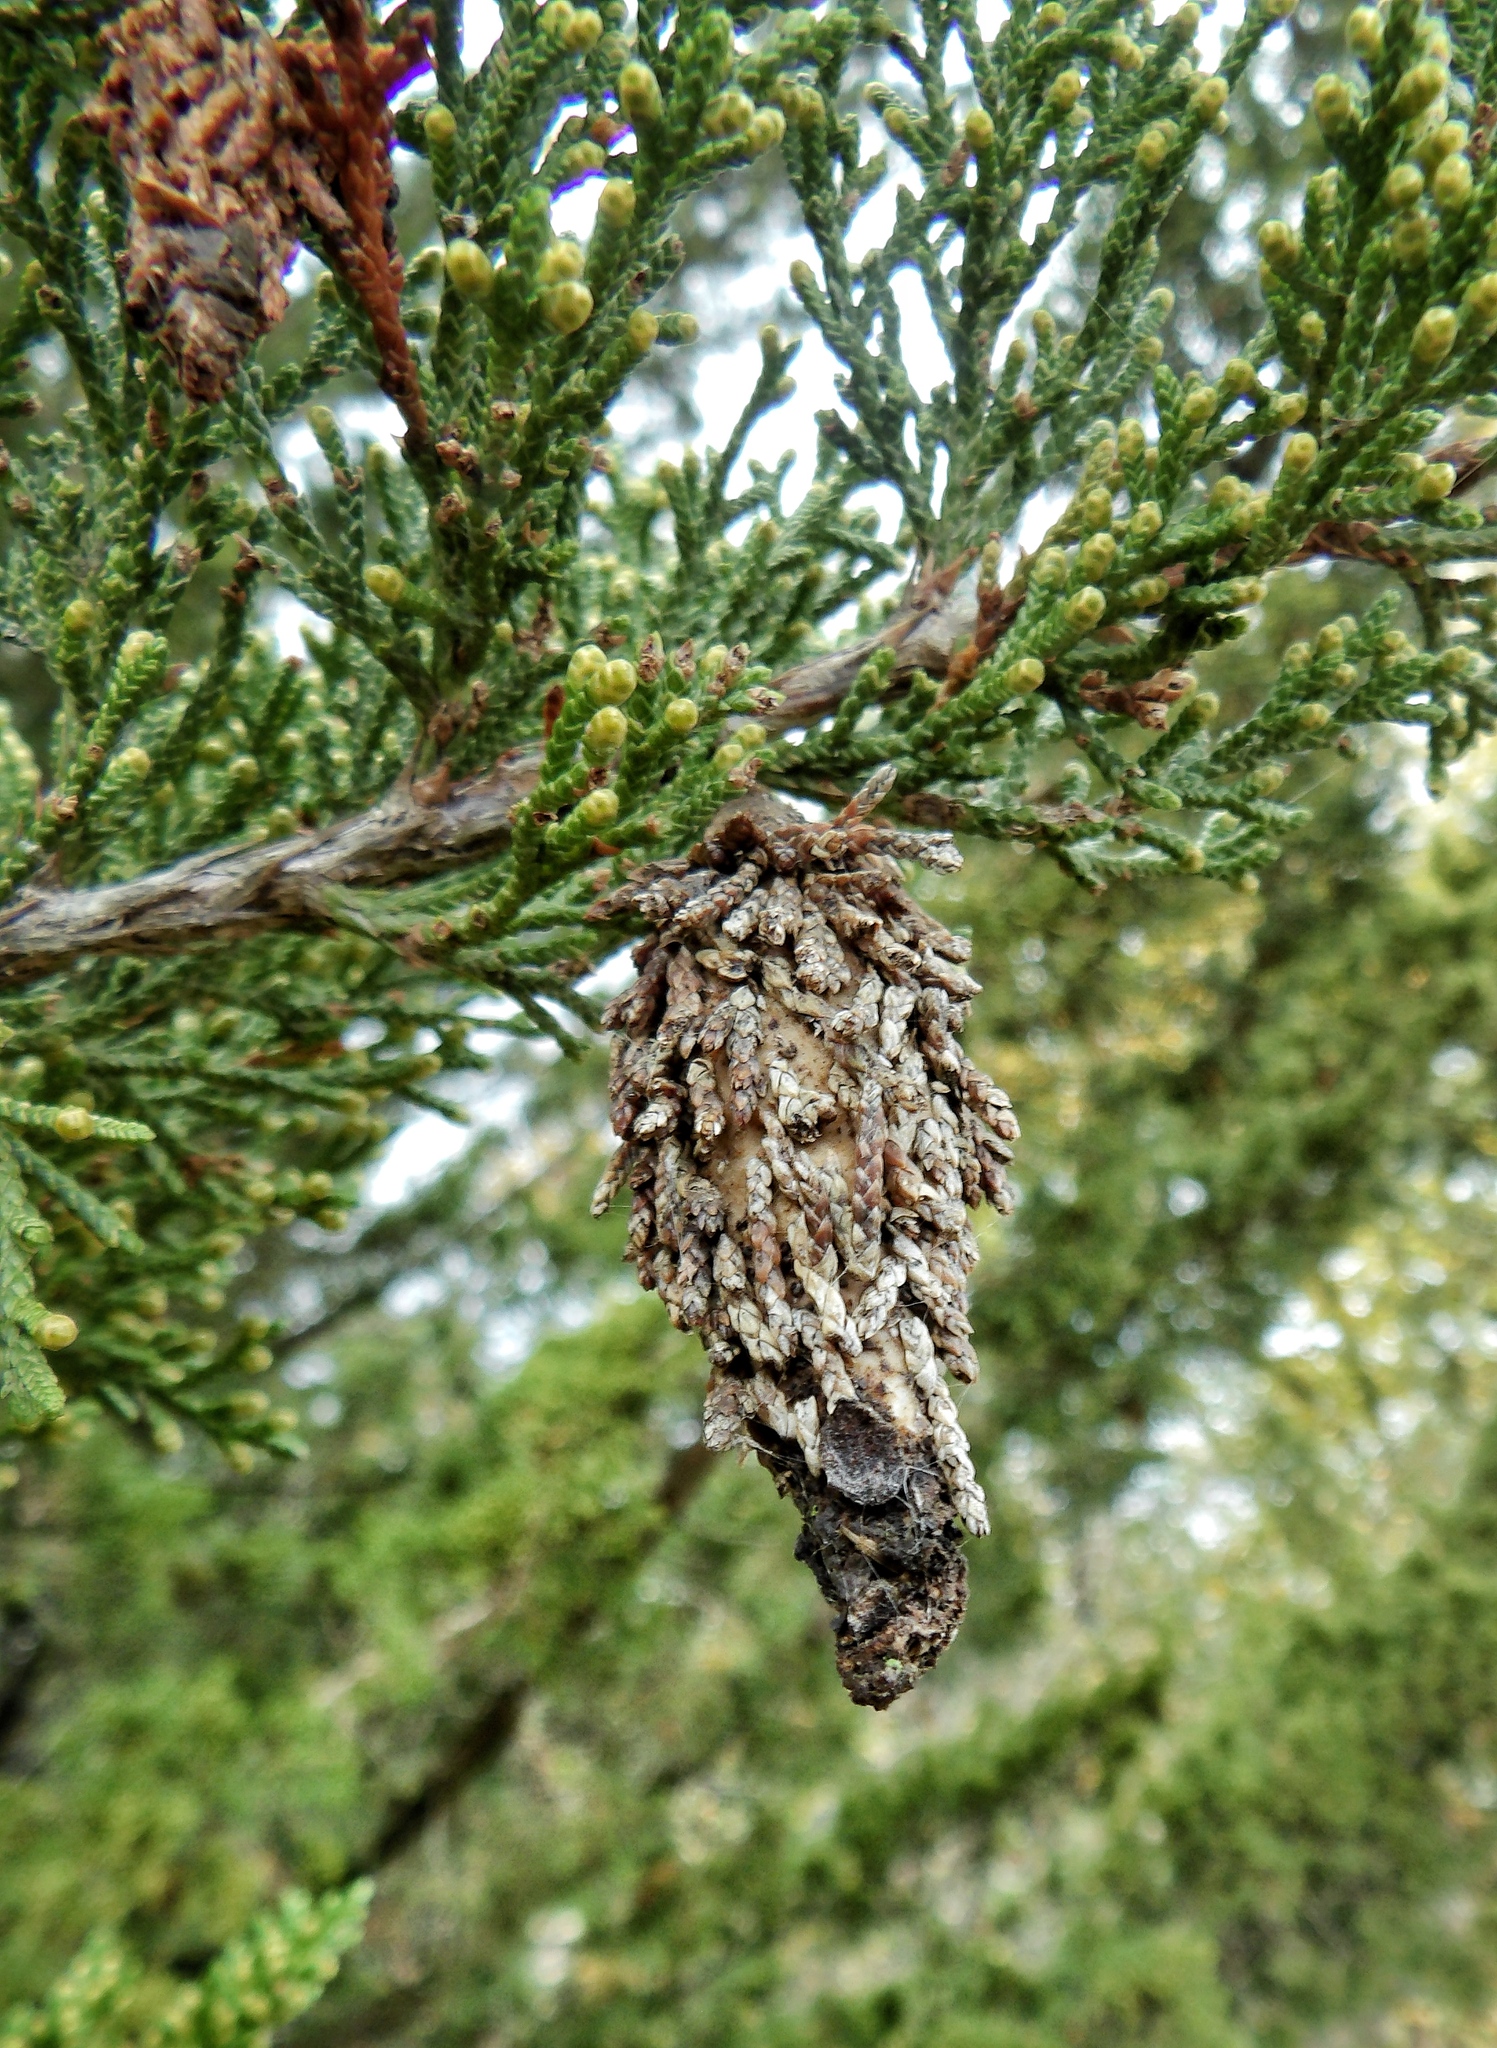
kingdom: Animalia
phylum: Arthropoda
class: Insecta
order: Lepidoptera
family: Psychidae
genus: Thyridopteryx
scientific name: Thyridopteryx ephemeraeformis
